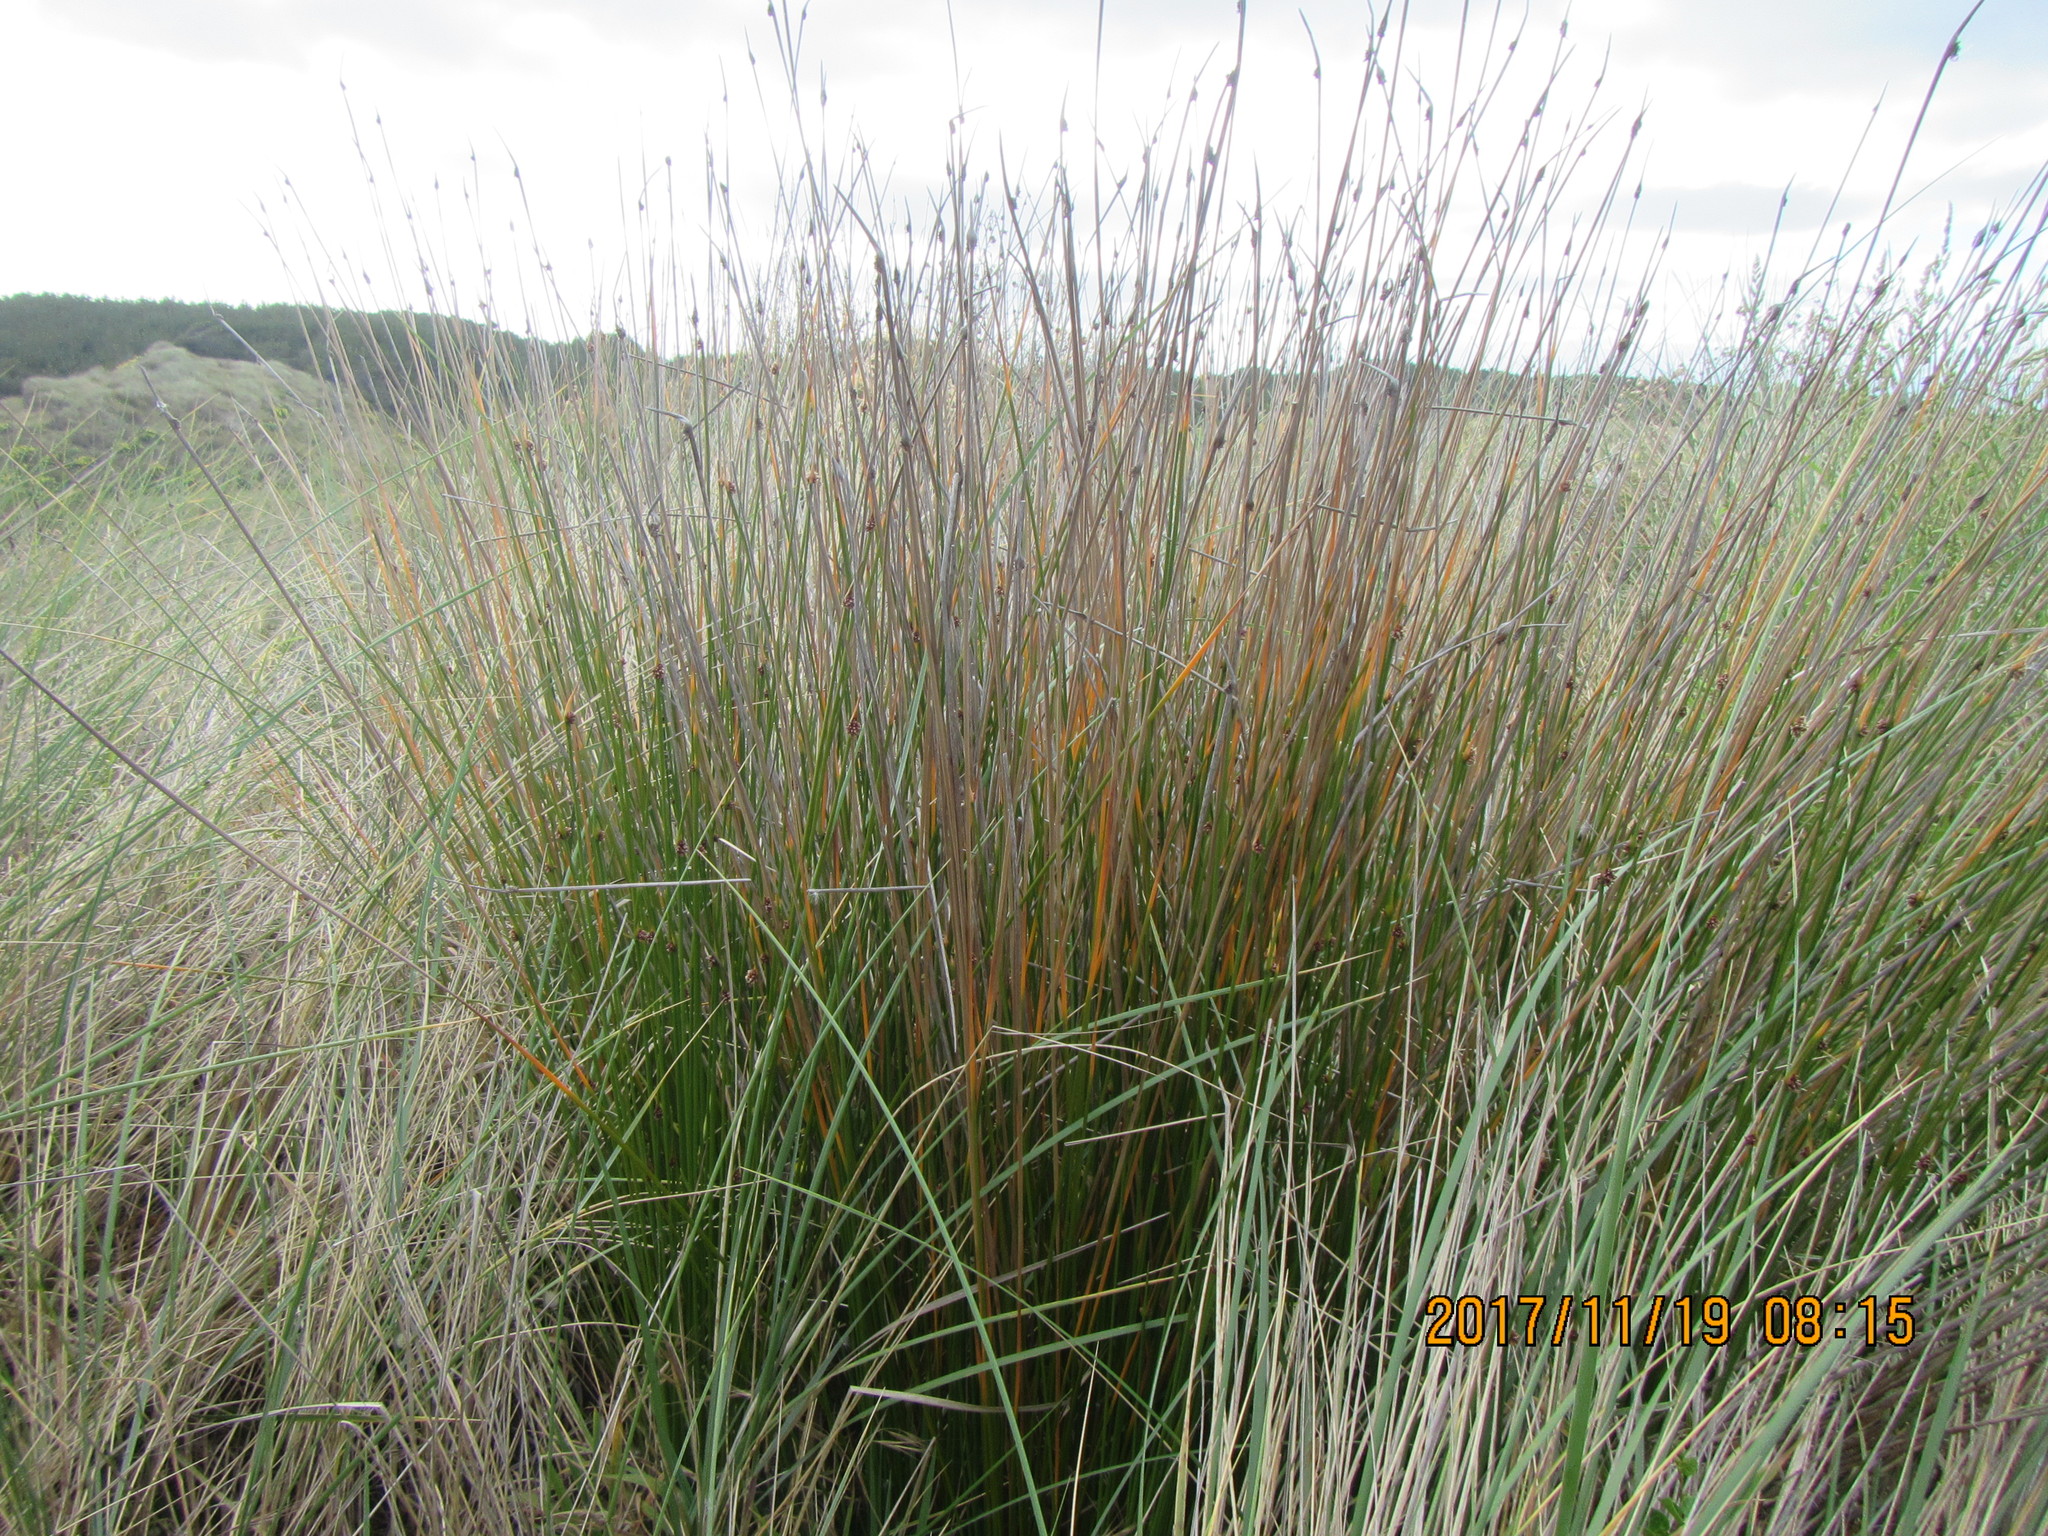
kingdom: Plantae
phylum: Tracheophyta
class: Liliopsida
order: Poales
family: Cyperaceae
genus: Ficinia
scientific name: Ficinia nodosa
